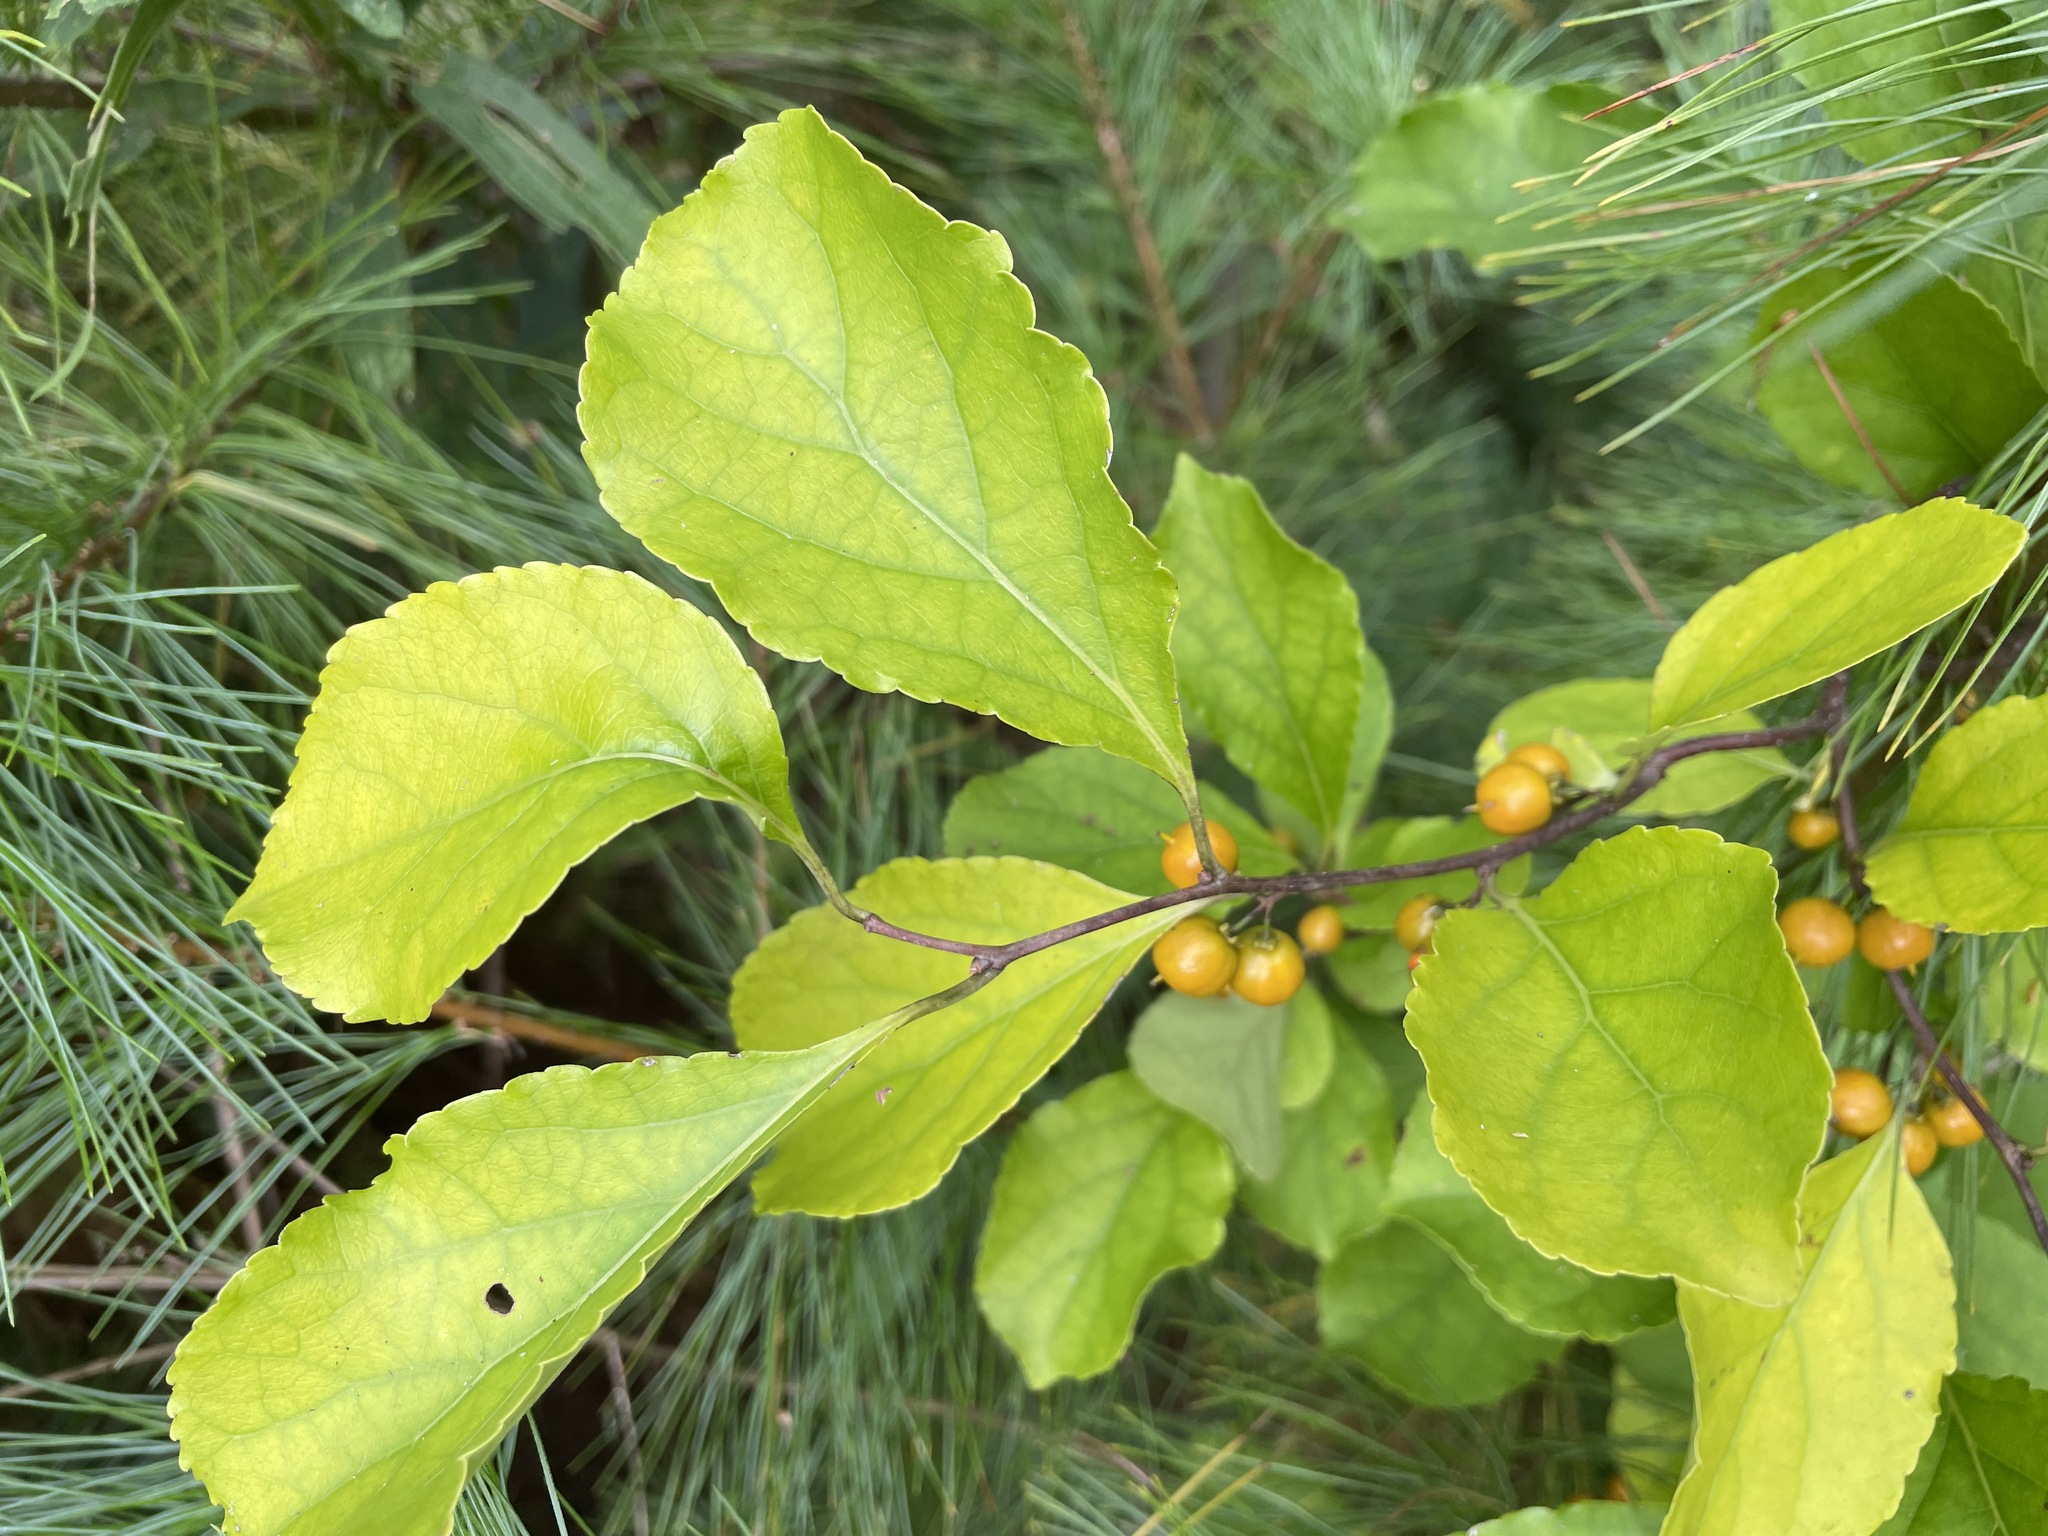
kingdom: Plantae
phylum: Tracheophyta
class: Magnoliopsida
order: Celastrales
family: Celastraceae
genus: Celastrus
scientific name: Celastrus orbiculatus
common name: Oriental bittersweet
